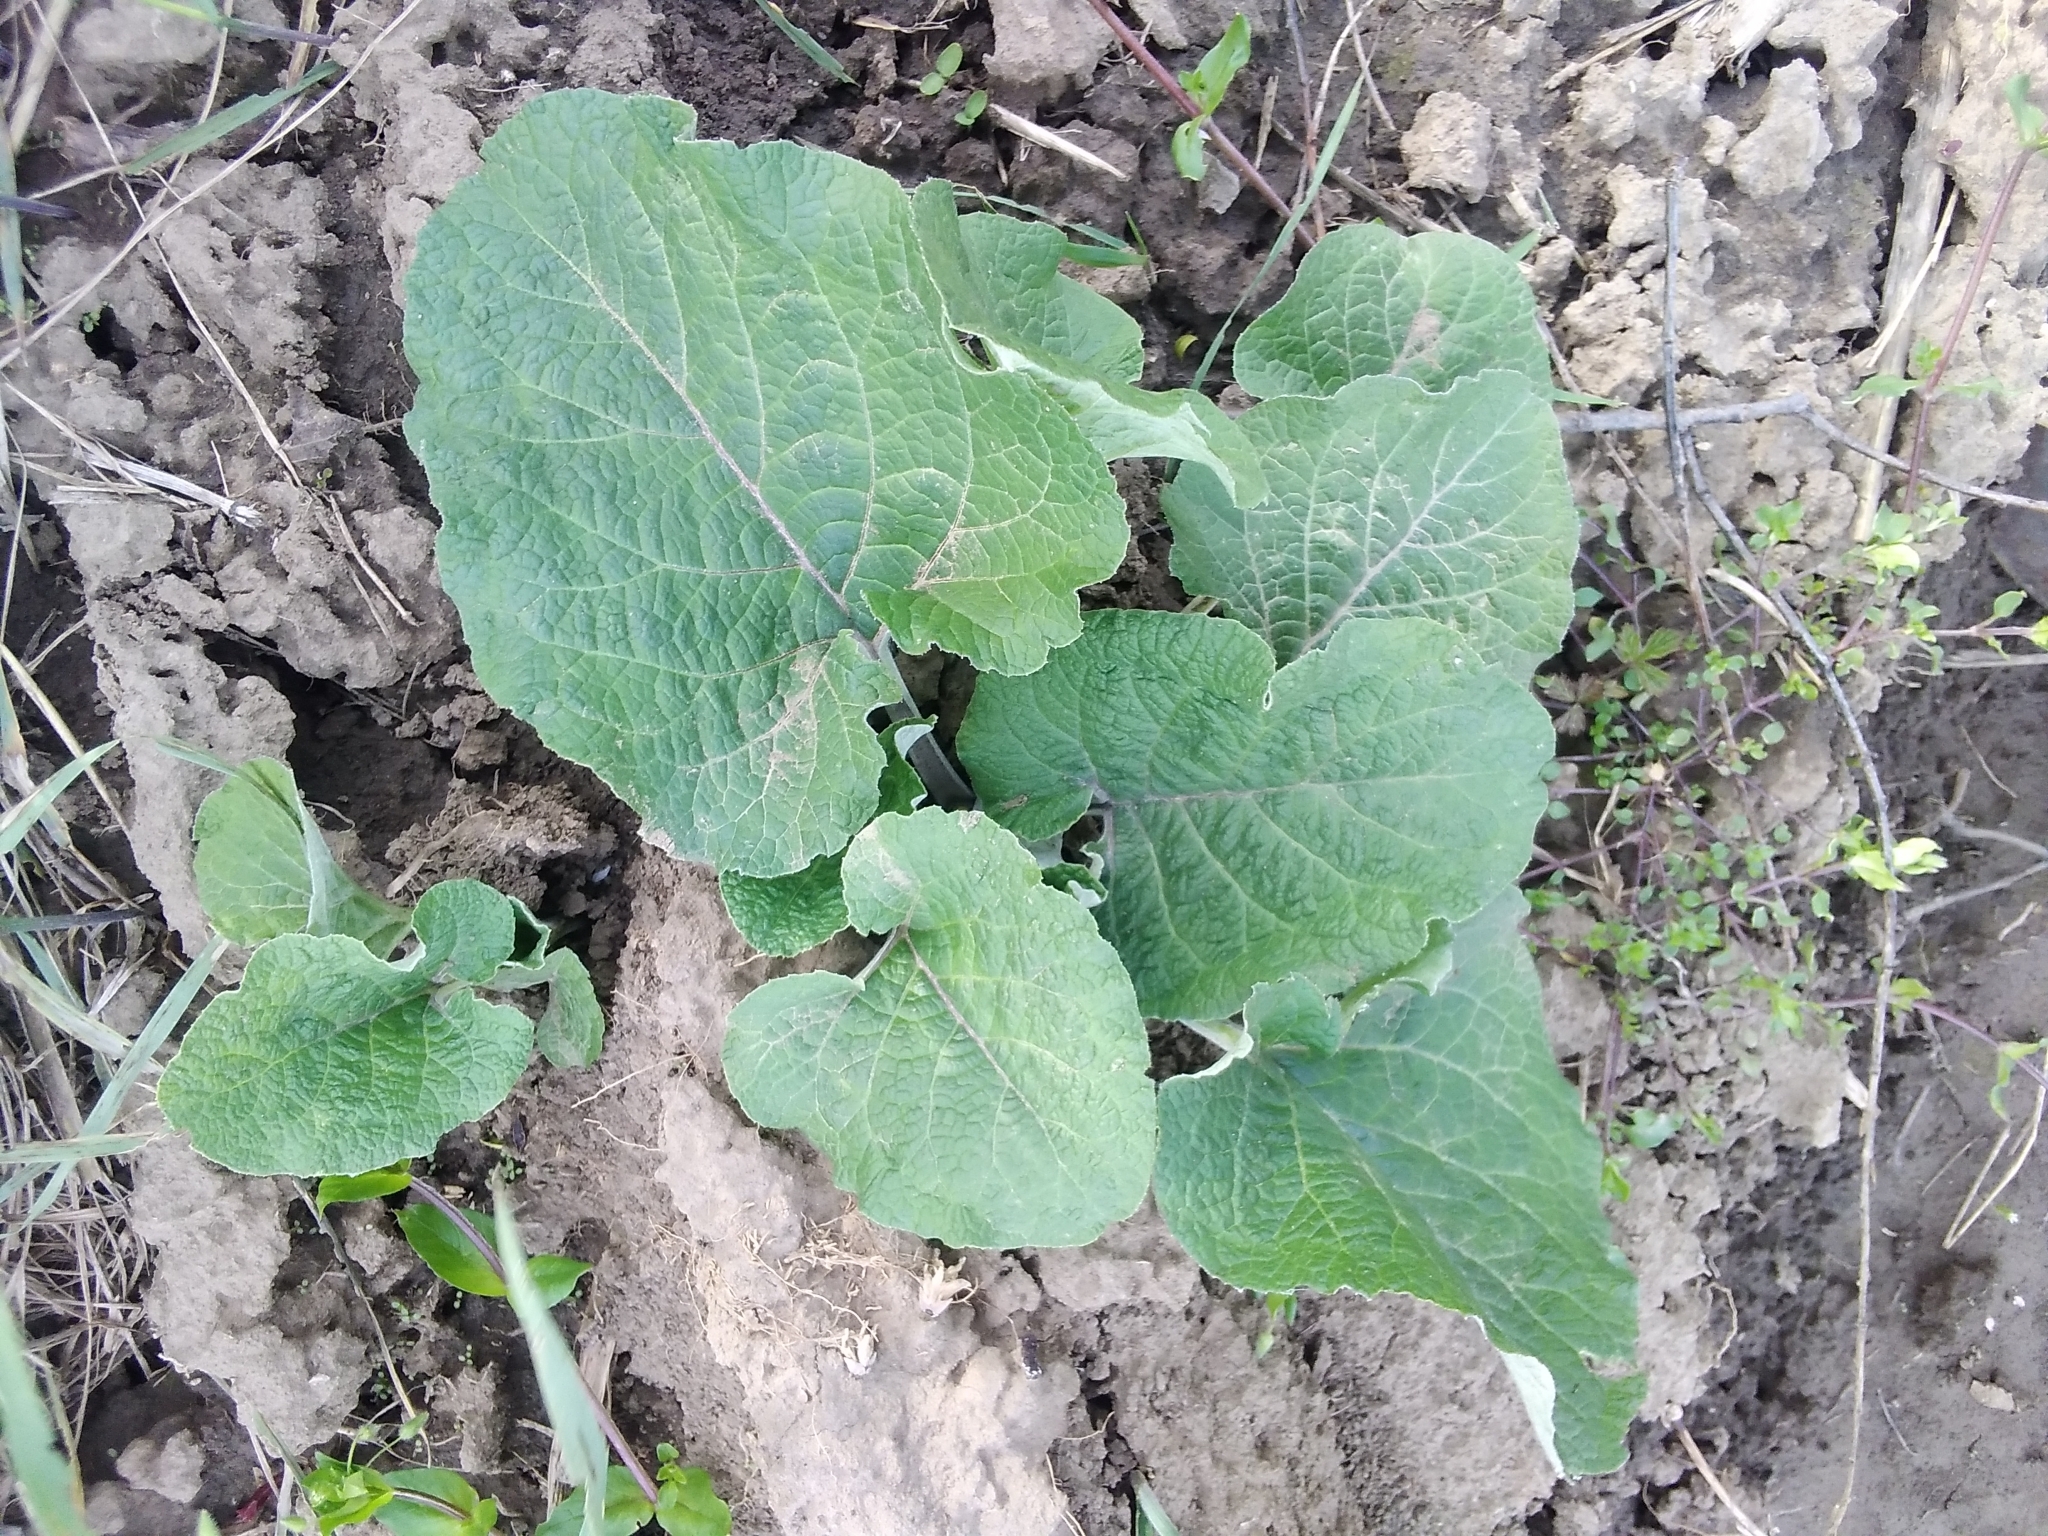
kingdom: Plantae
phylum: Tracheophyta
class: Magnoliopsida
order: Asterales
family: Asteraceae
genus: Arctium
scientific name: Arctium tomentosum
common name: Woolly burdock
